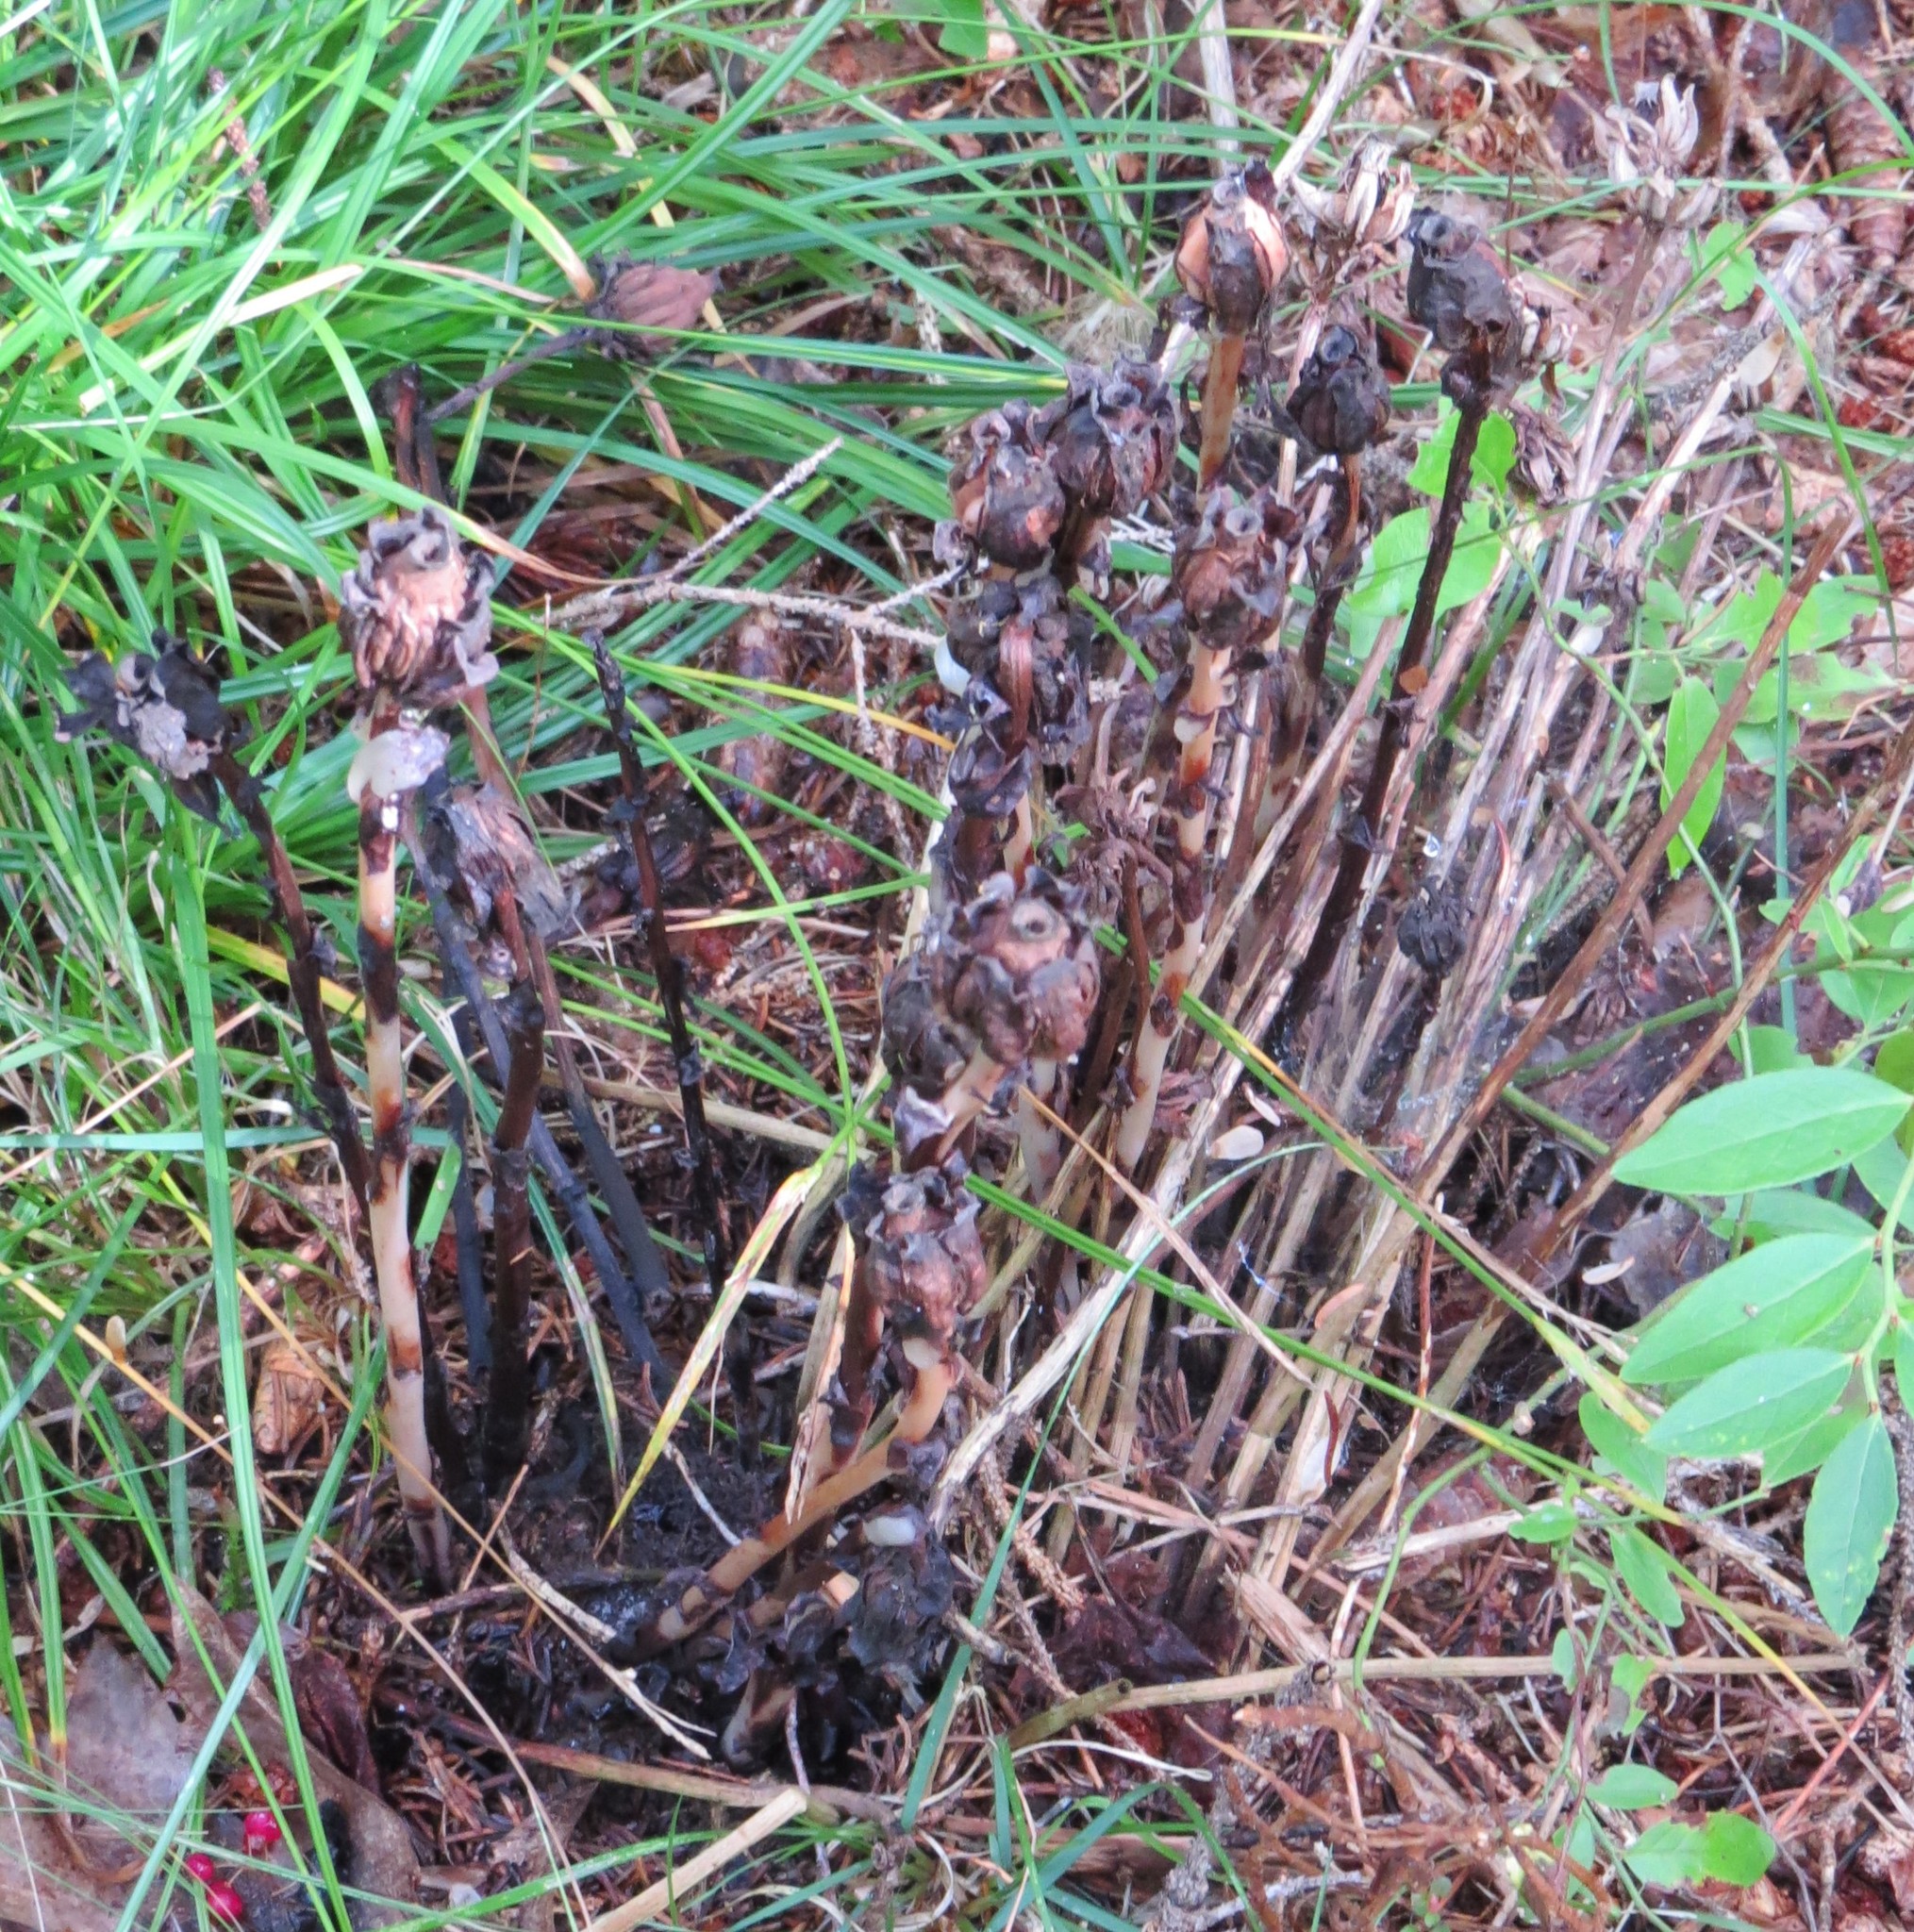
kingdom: Plantae
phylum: Tracheophyta
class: Magnoliopsida
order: Ericales
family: Ericaceae
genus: Monotropa
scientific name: Monotropa uniflora
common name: Convulsion root
